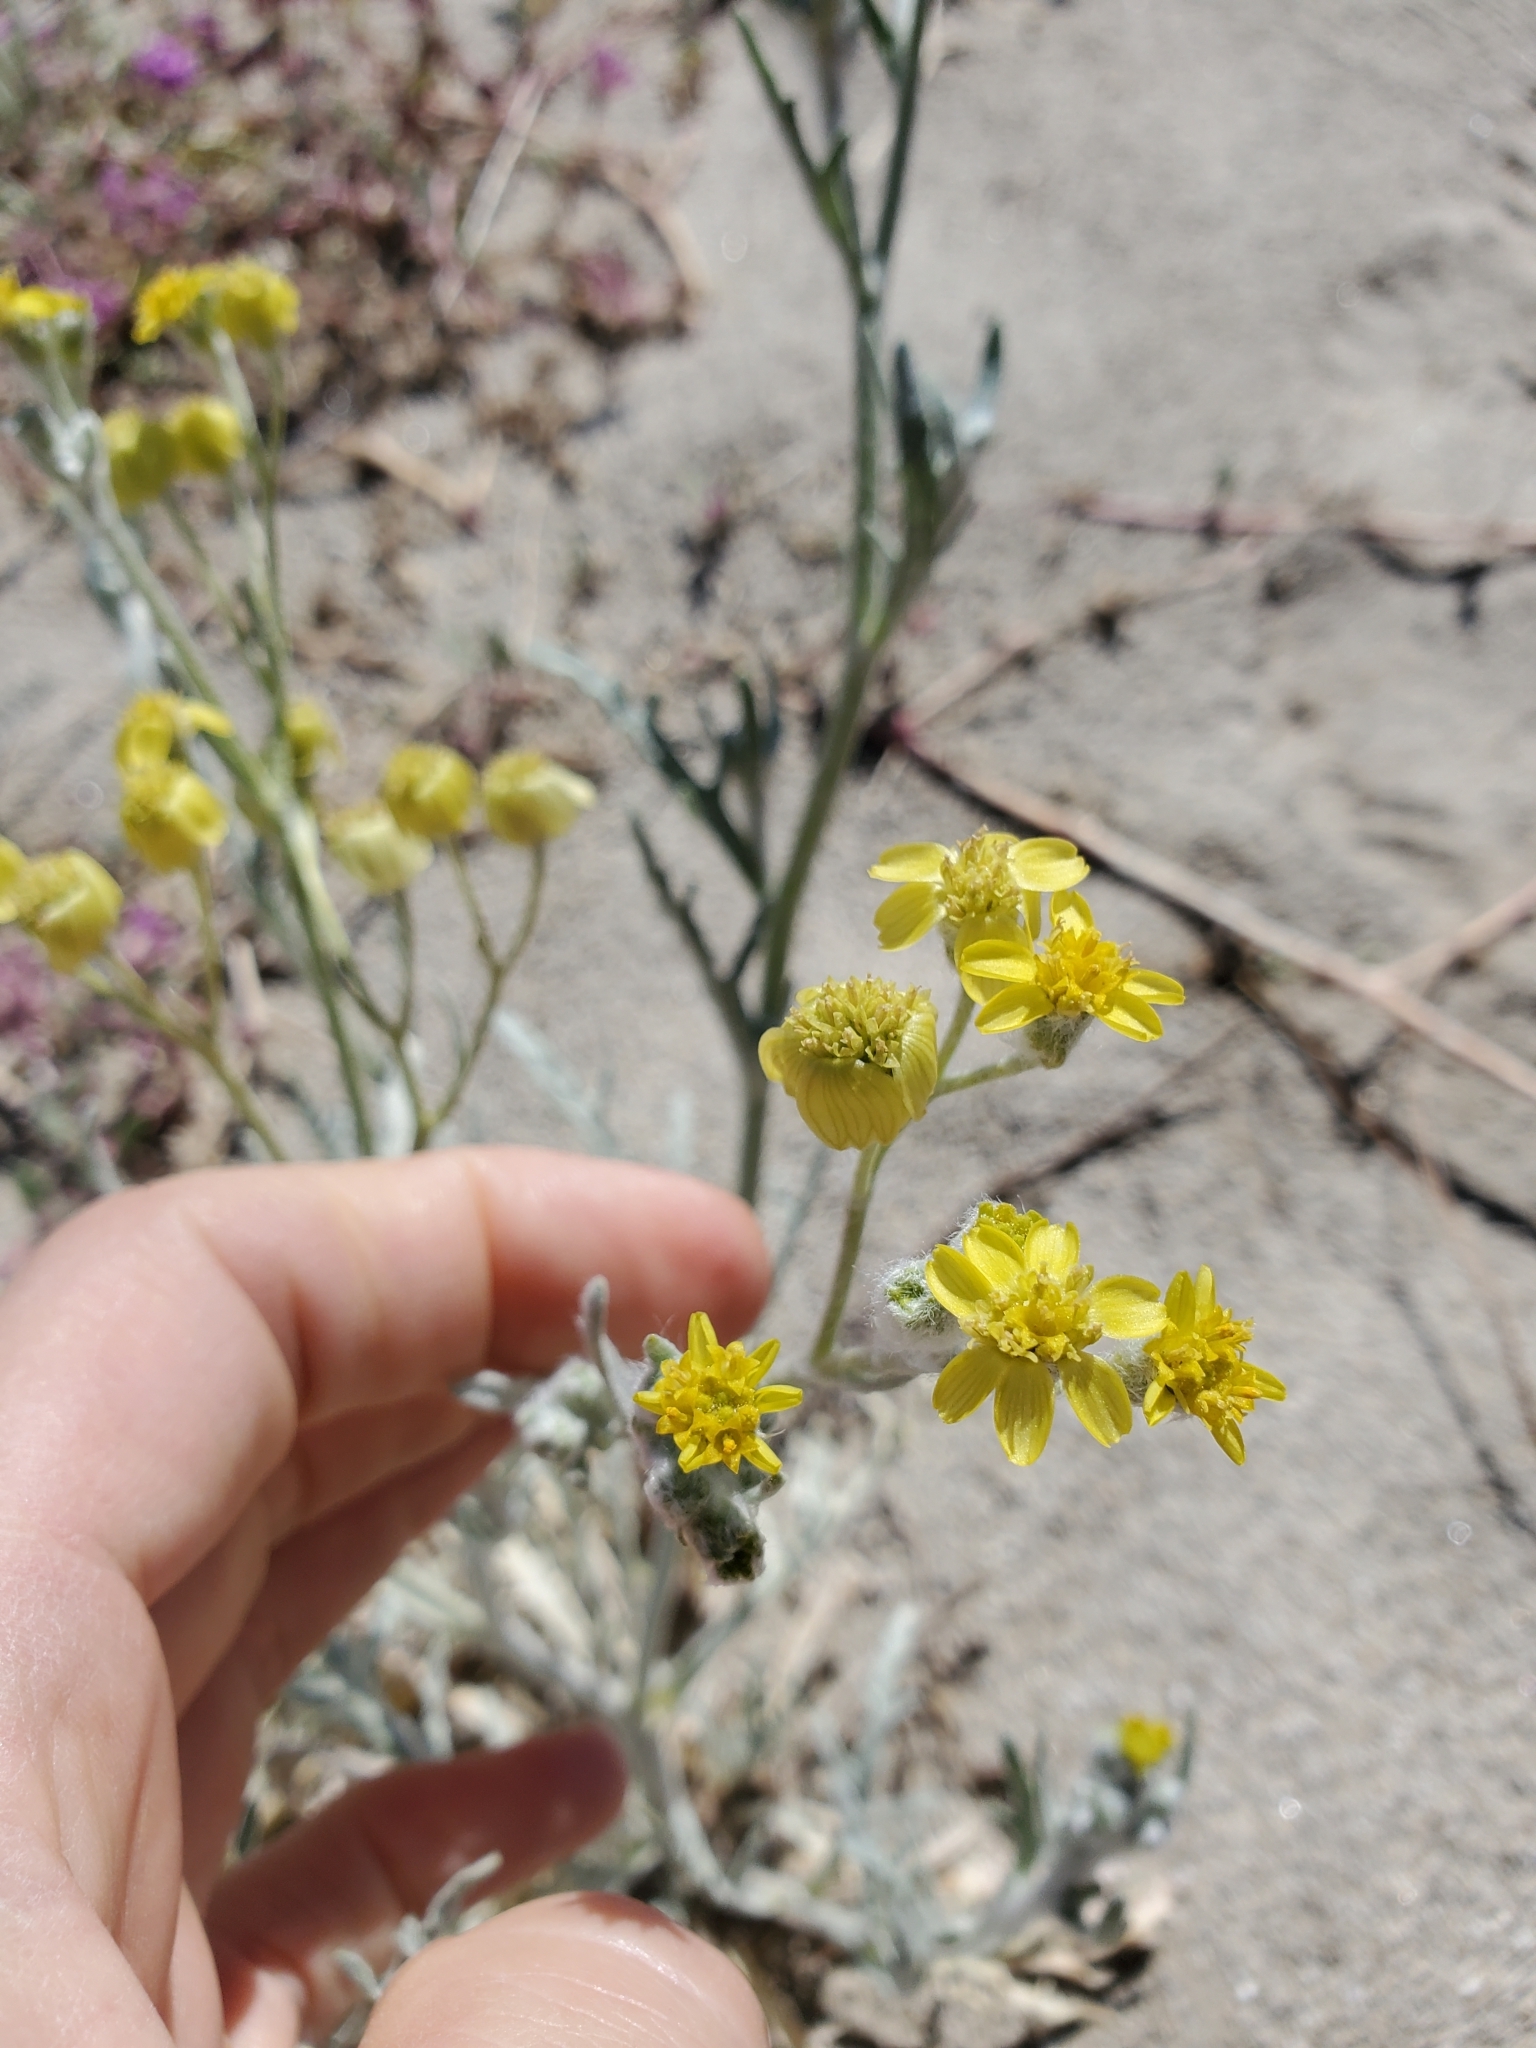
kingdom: Plantae
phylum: Tracheophyta
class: Magnoliopsida
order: Asterales
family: Asteraceae
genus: Baileya
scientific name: Baileya pauciradiata
